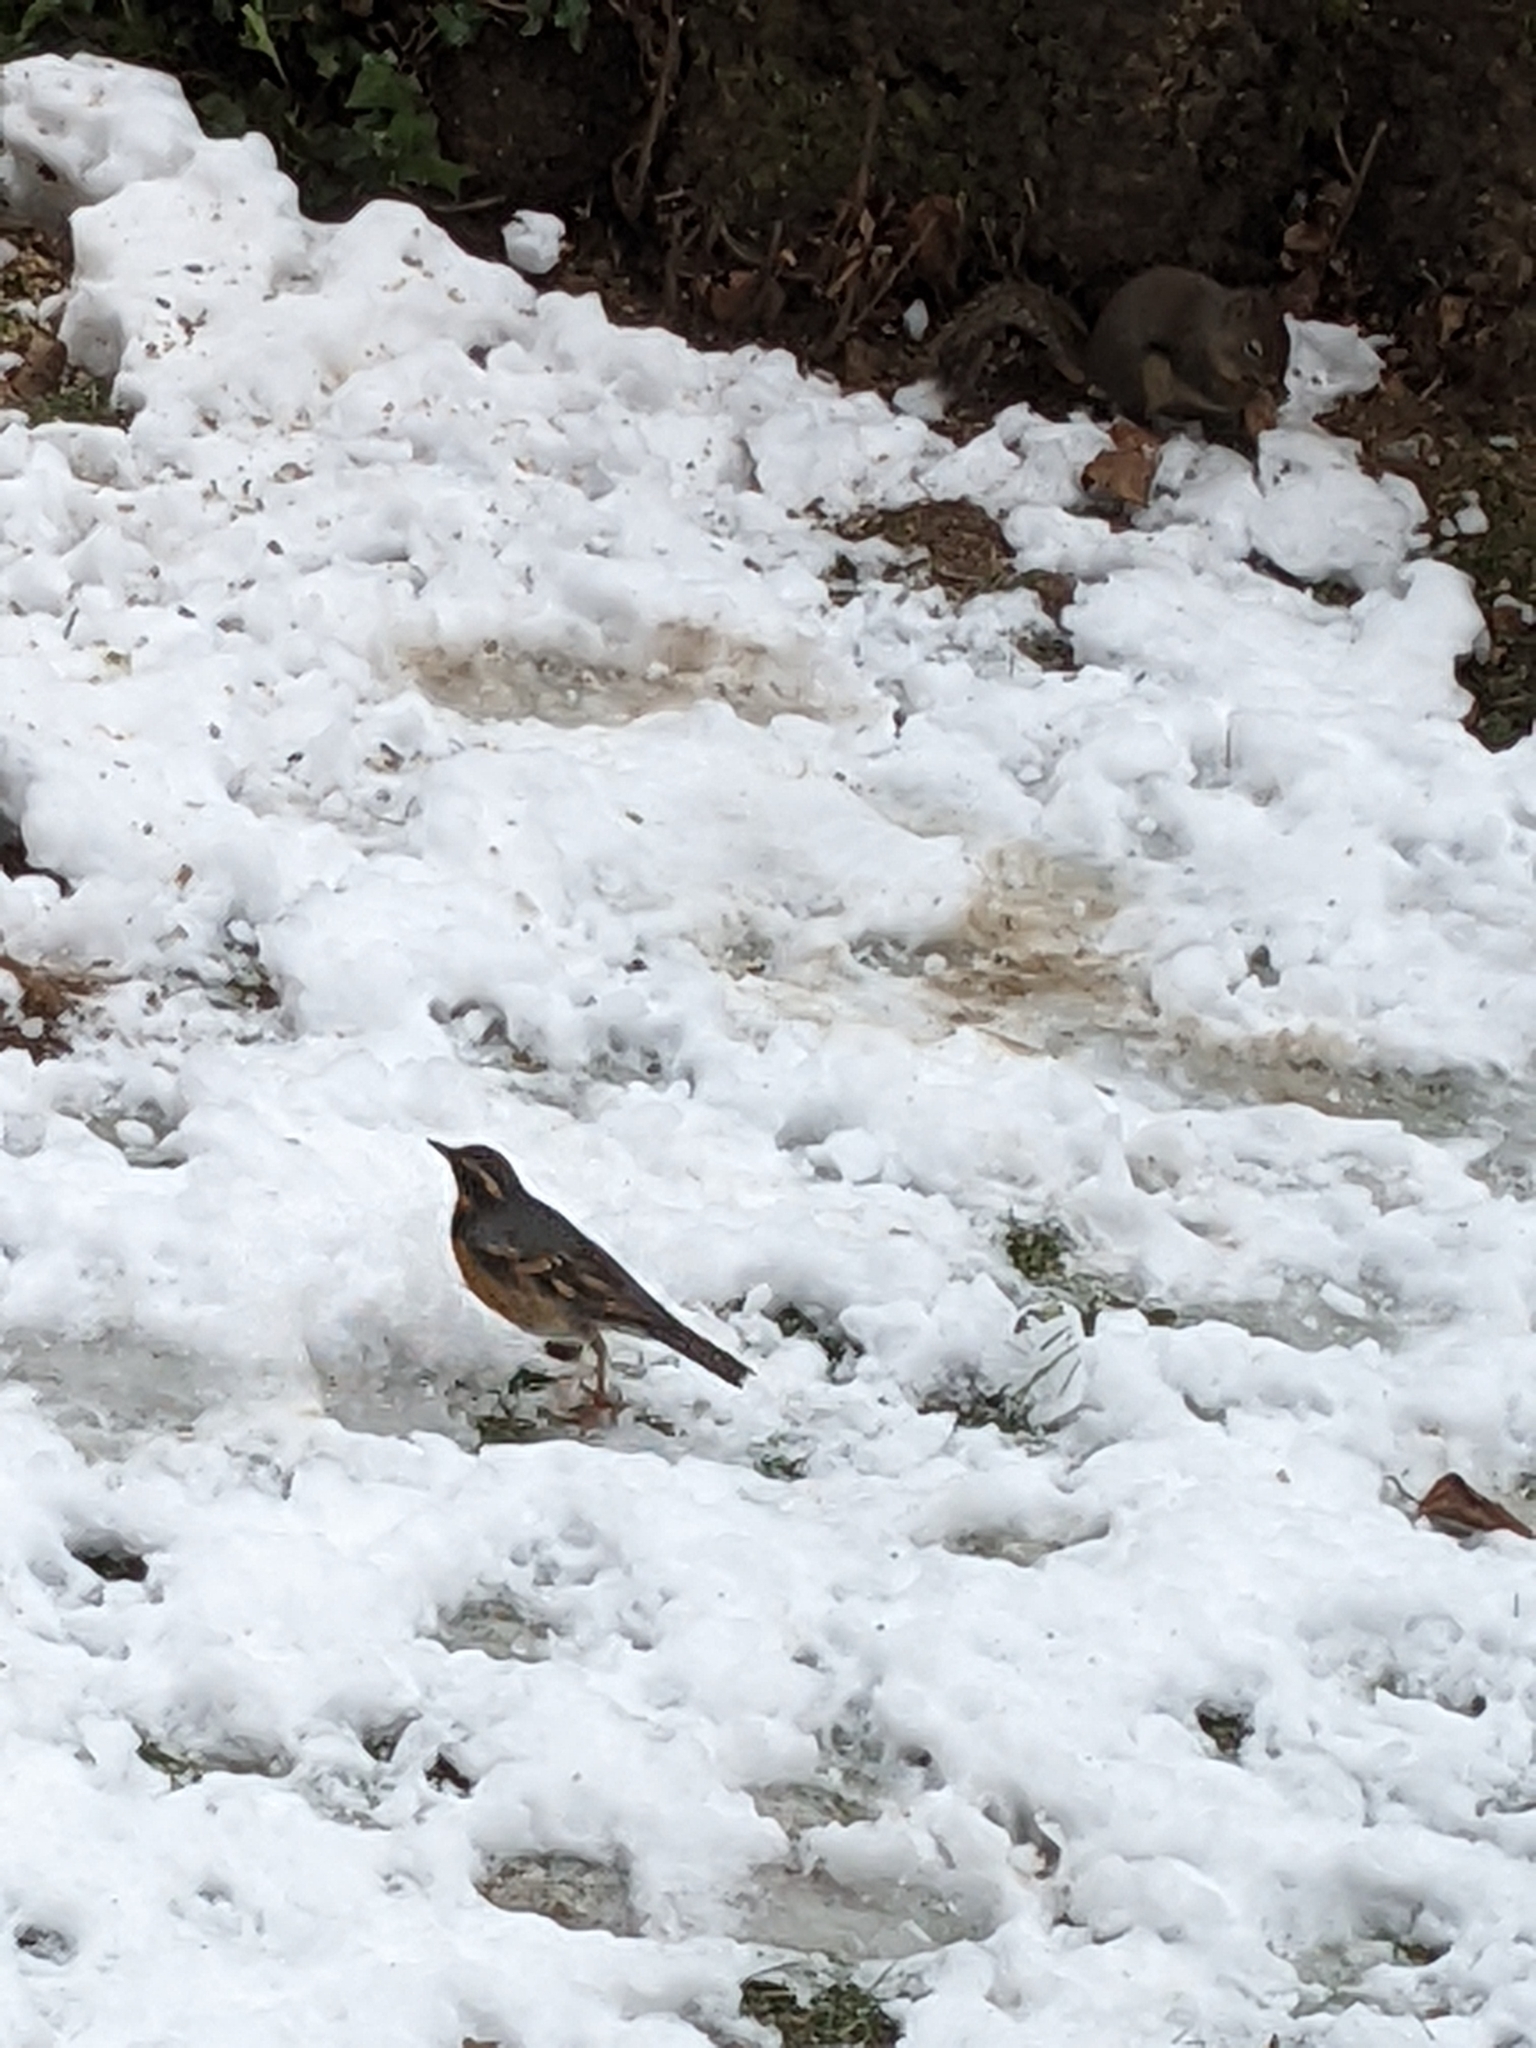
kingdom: Animalia
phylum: Chordata
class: Aves
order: Passeriformes
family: Turdidae
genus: Ixoreus
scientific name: Ixoreus naevius
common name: Varied thrush
